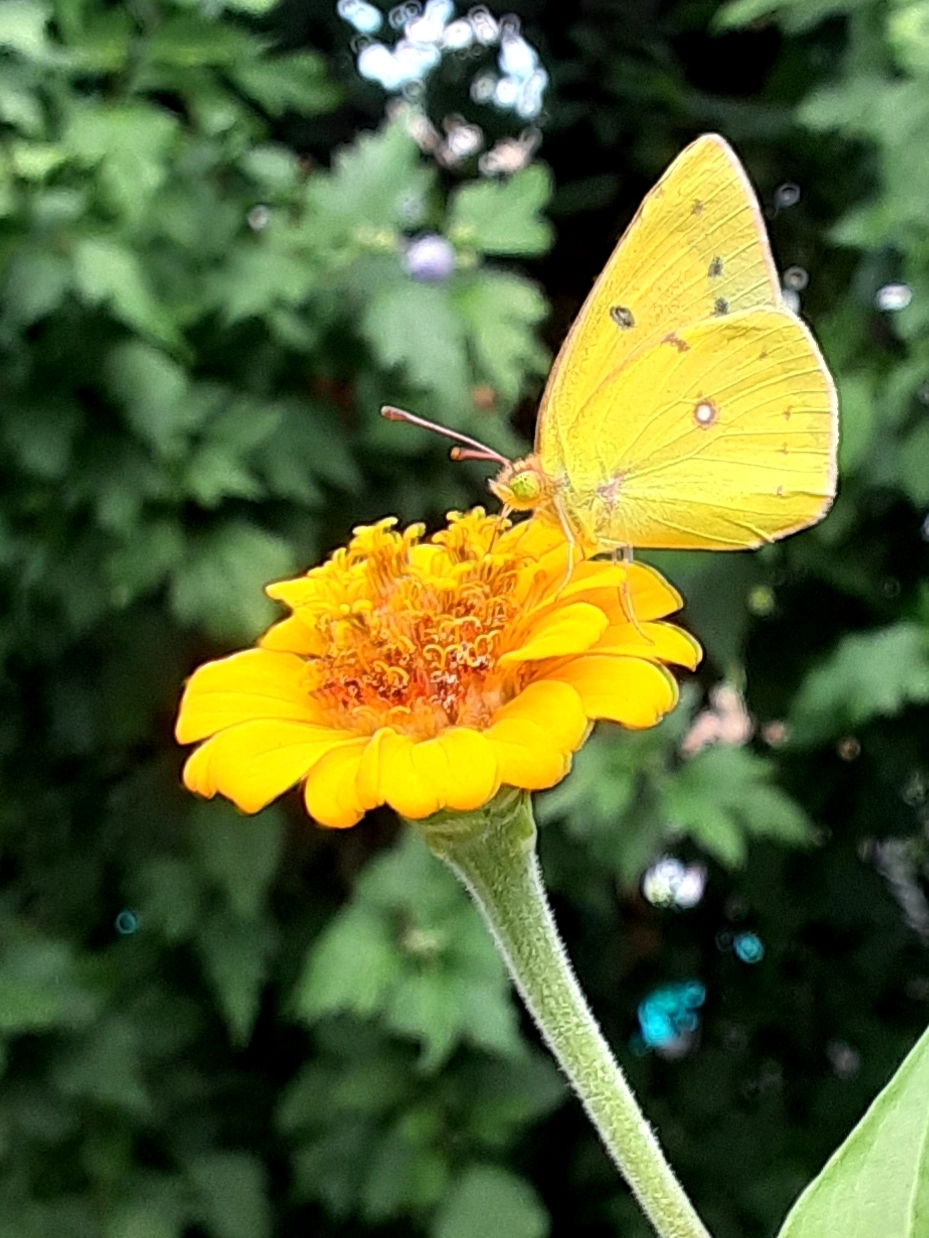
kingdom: Animalia
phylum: Arthropoda
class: Insecta
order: Lepidoptera
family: Pieridae
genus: Colias
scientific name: Colias eurytheme
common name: Alfalfa butterfly
